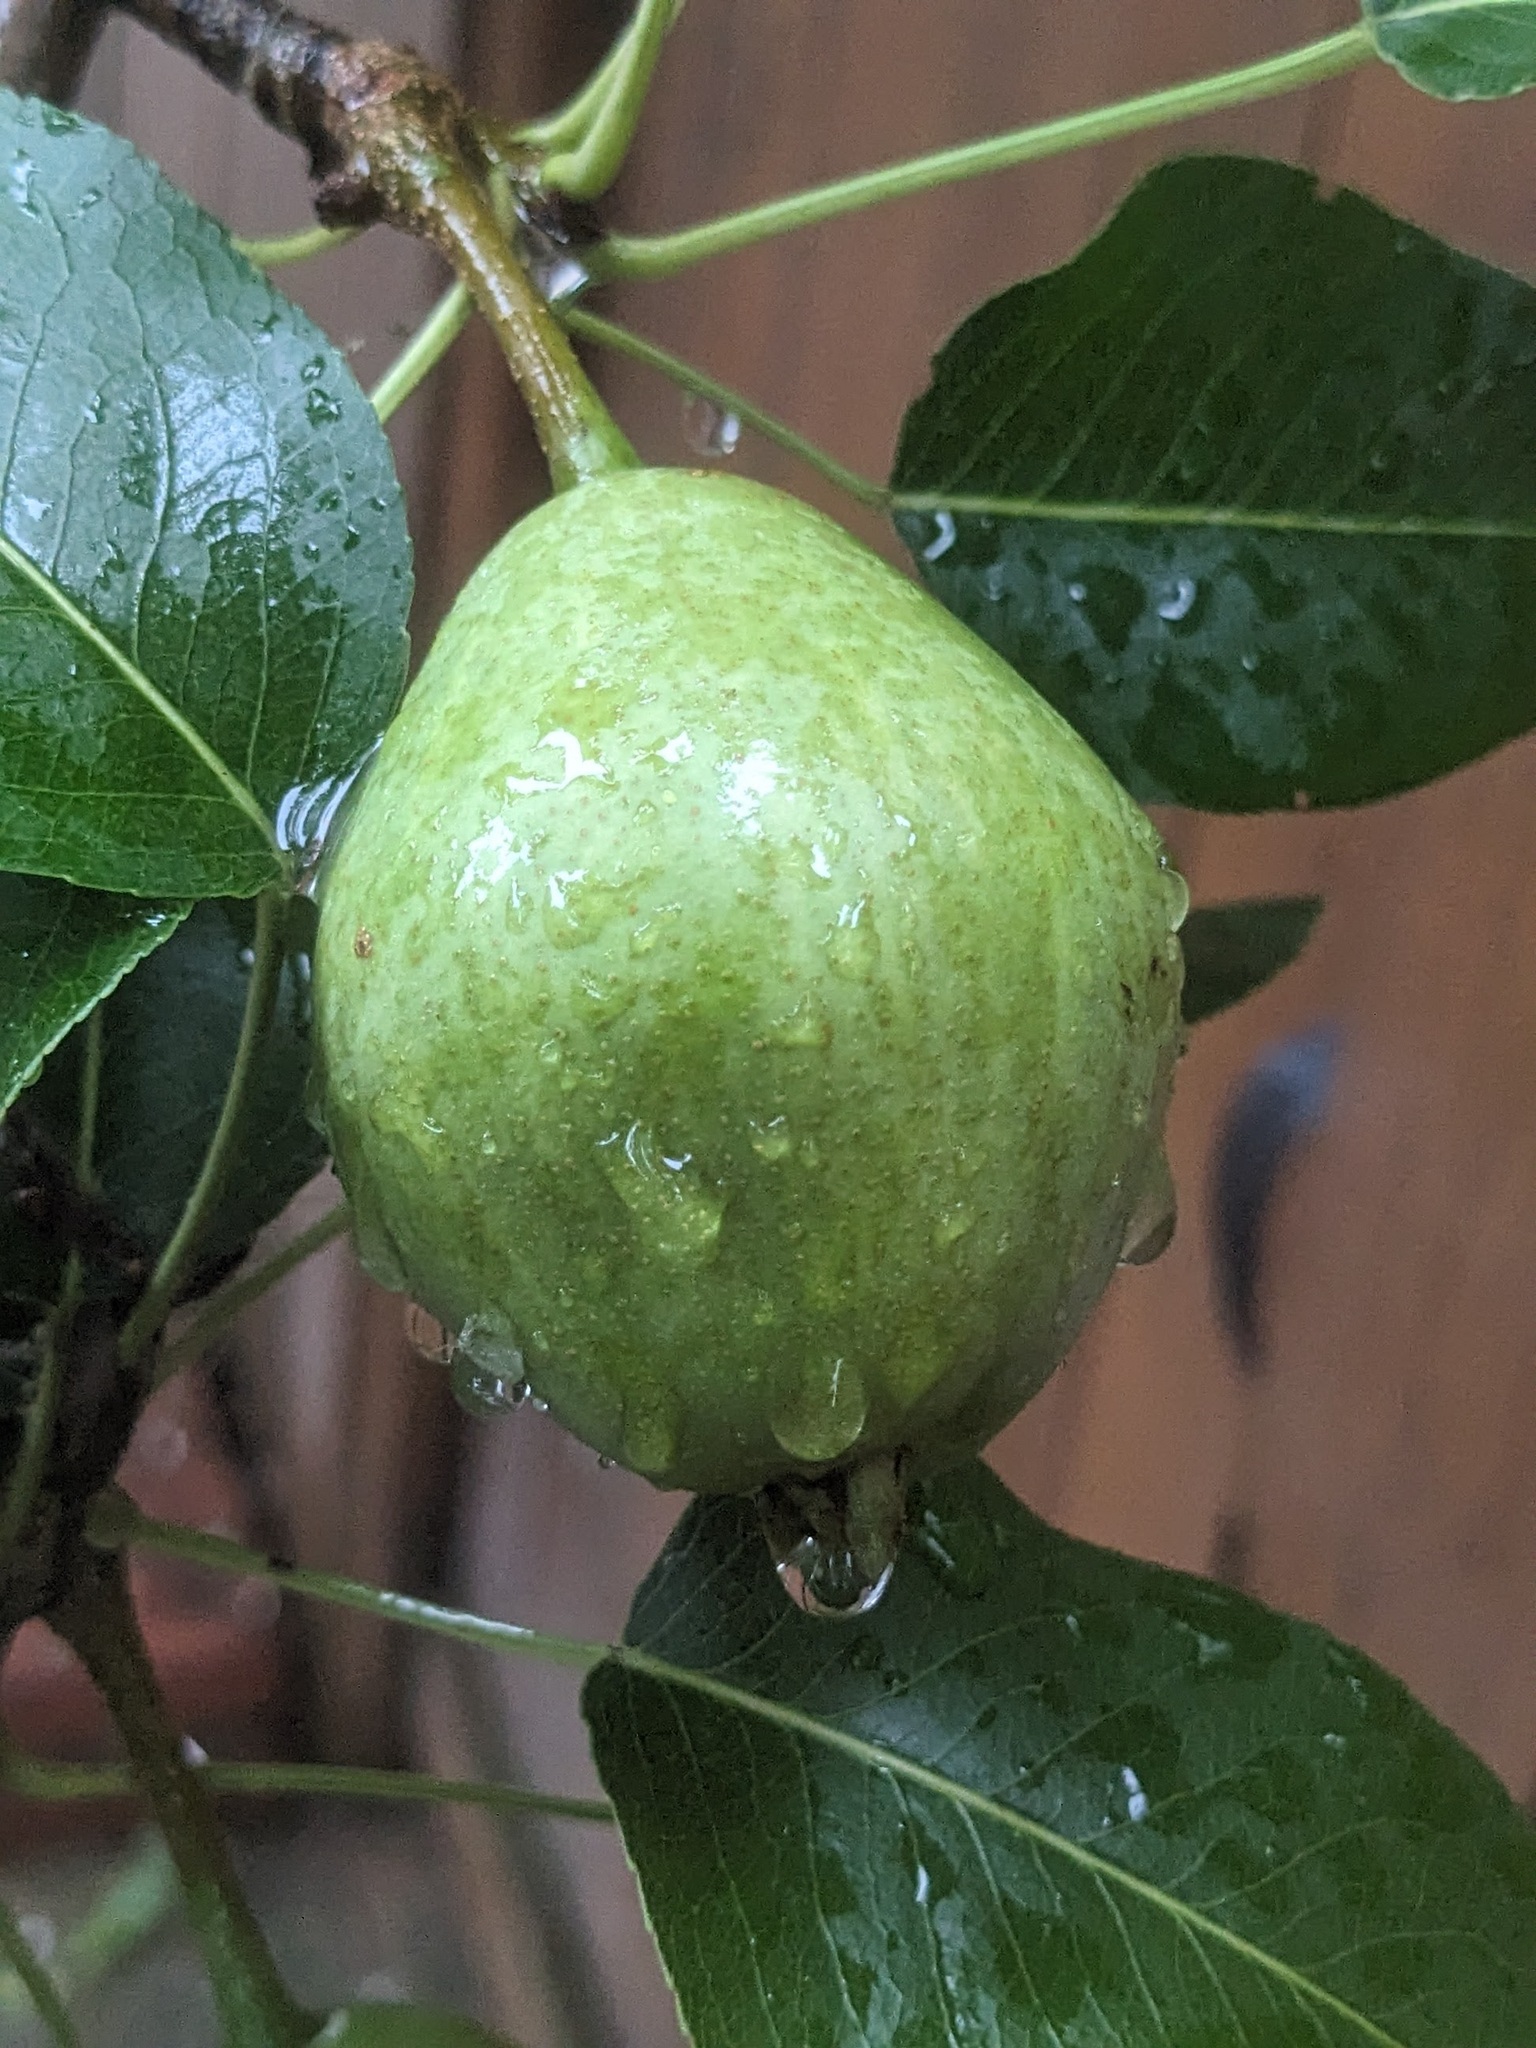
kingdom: Plantae
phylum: Tracheophyta
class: Magnoliopsida
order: Rosales
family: Rosaceae
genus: Pyrus
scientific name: Pyrus communis
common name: Pear
